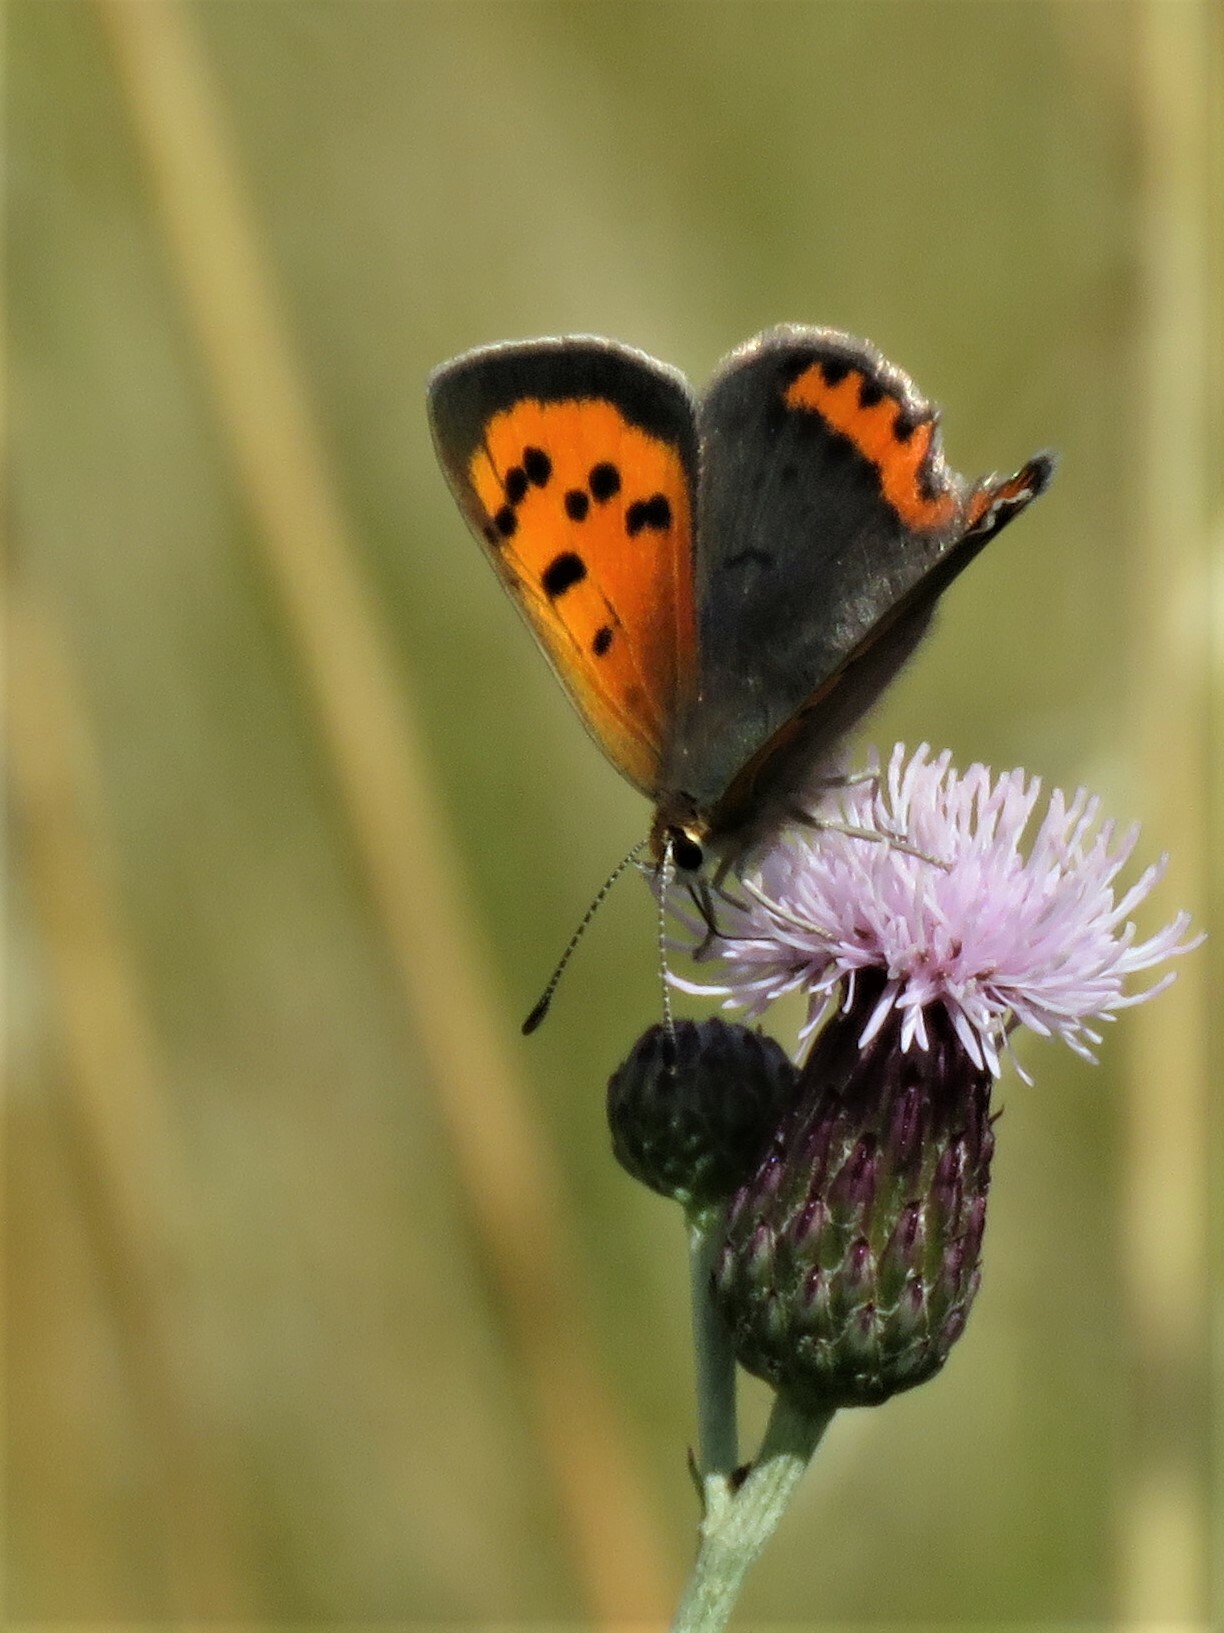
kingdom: Animalia
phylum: Arthropoda
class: Insecta
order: Lepidoptera
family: Lycaenidae
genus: Lycaena
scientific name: Lycaena phlaeas
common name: Small copper
